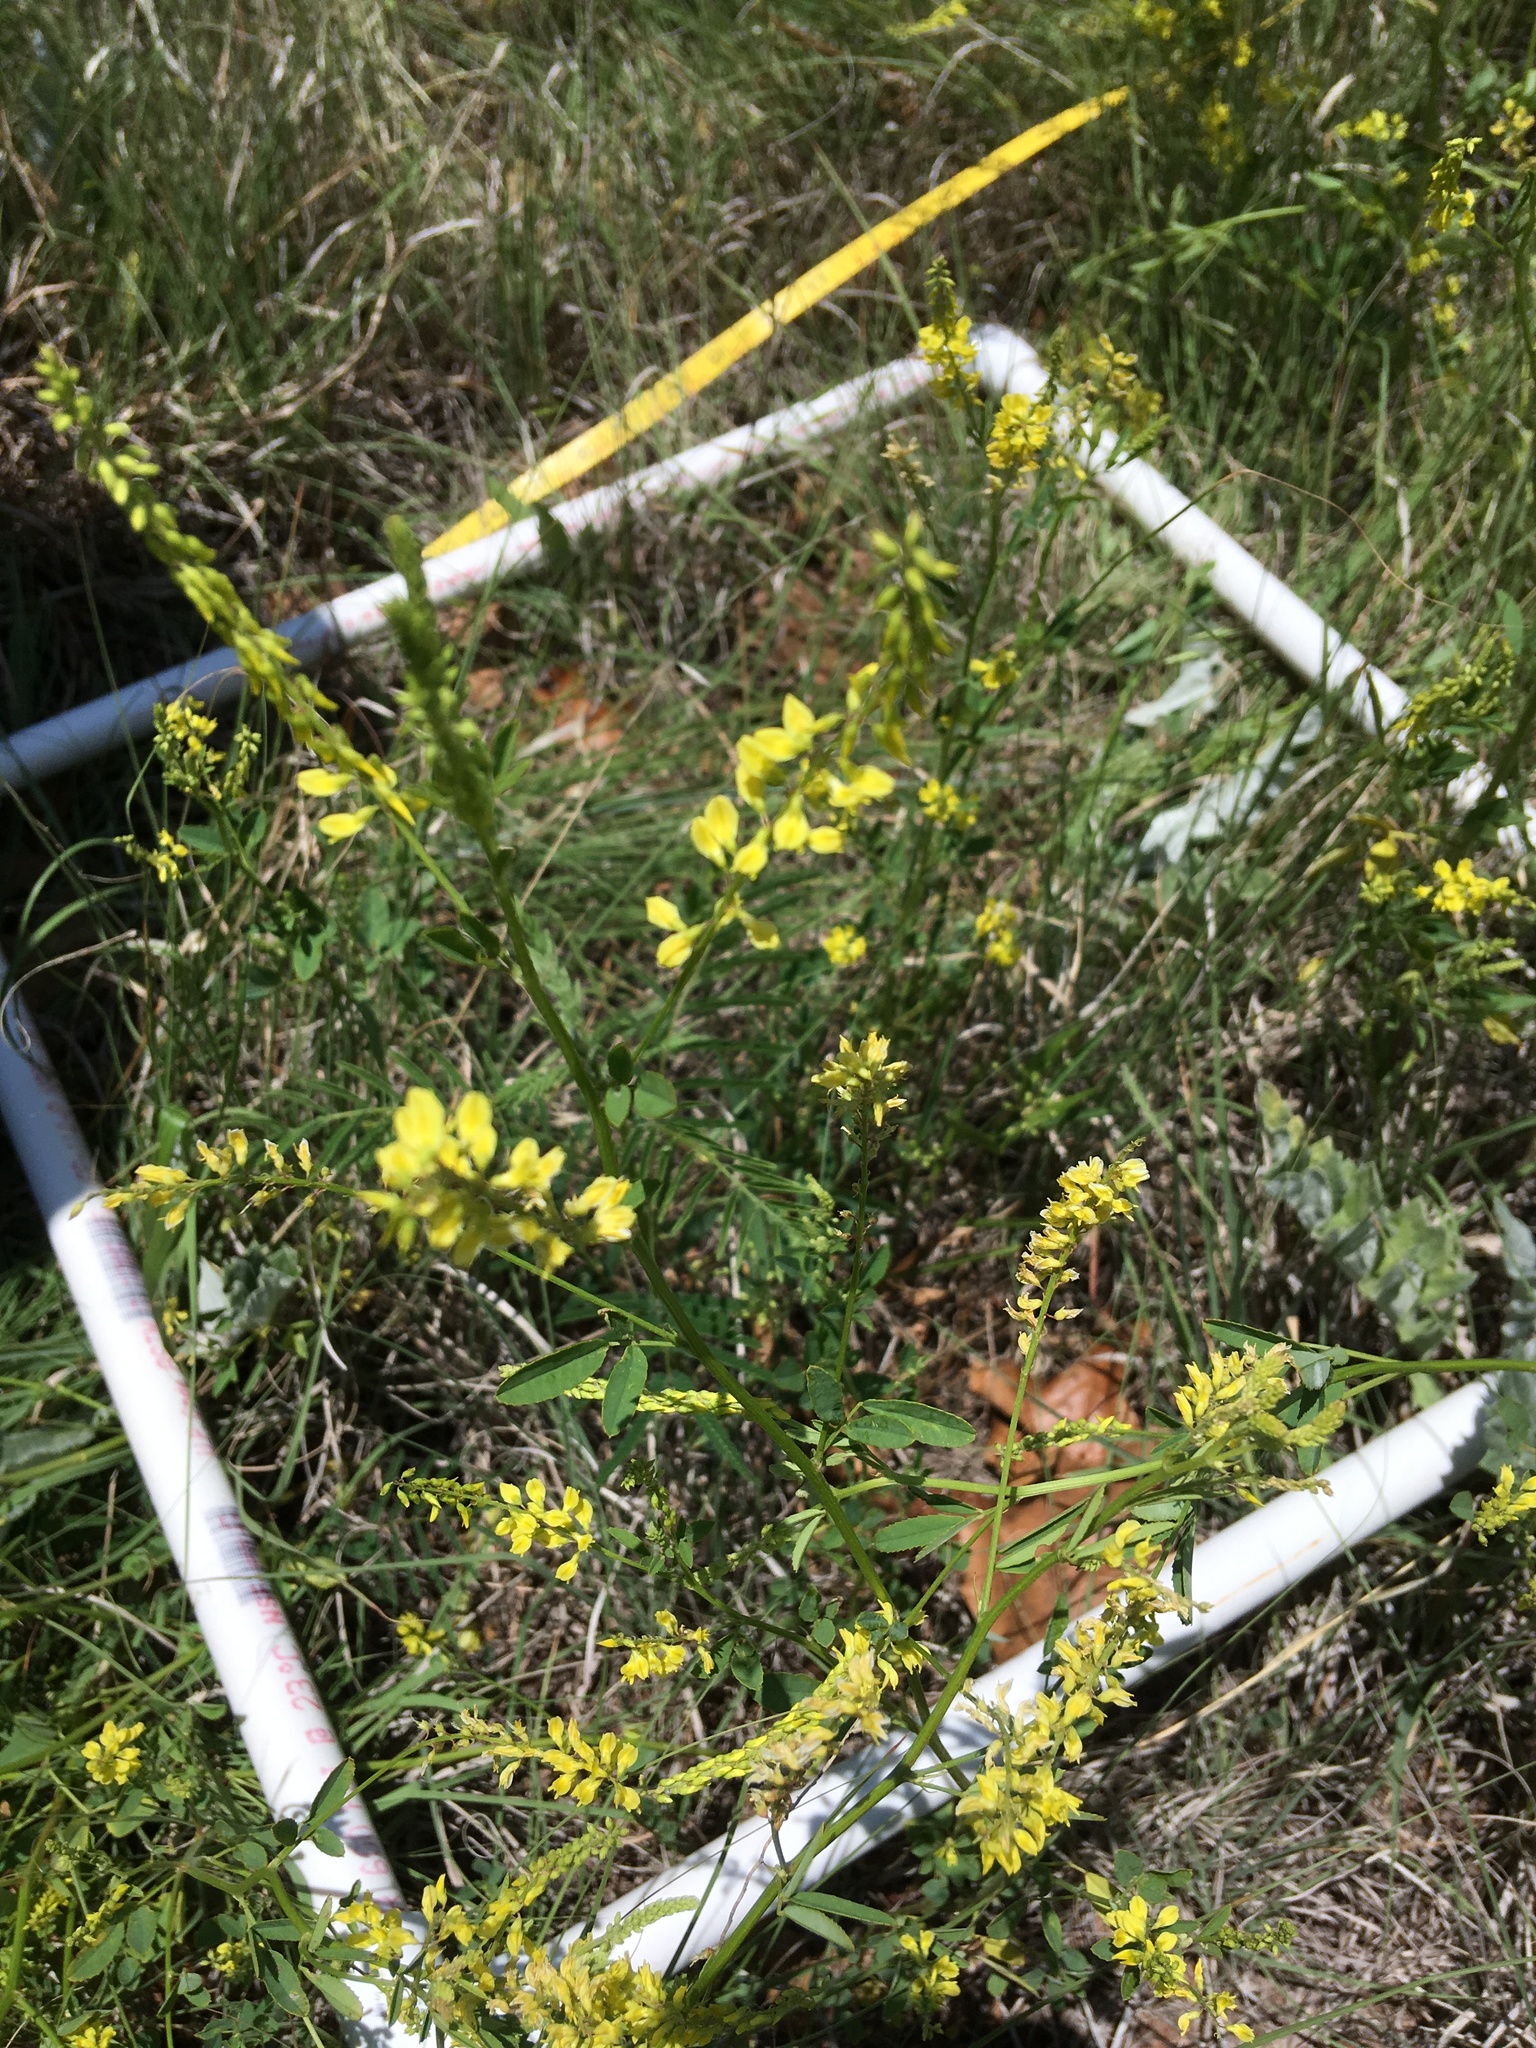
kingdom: Plantae
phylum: Tracheophyta
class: Magnoliopsida
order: Fabales
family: Fabaceae
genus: Melilotus
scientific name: Melilotus officinalis
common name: Sweetclover
